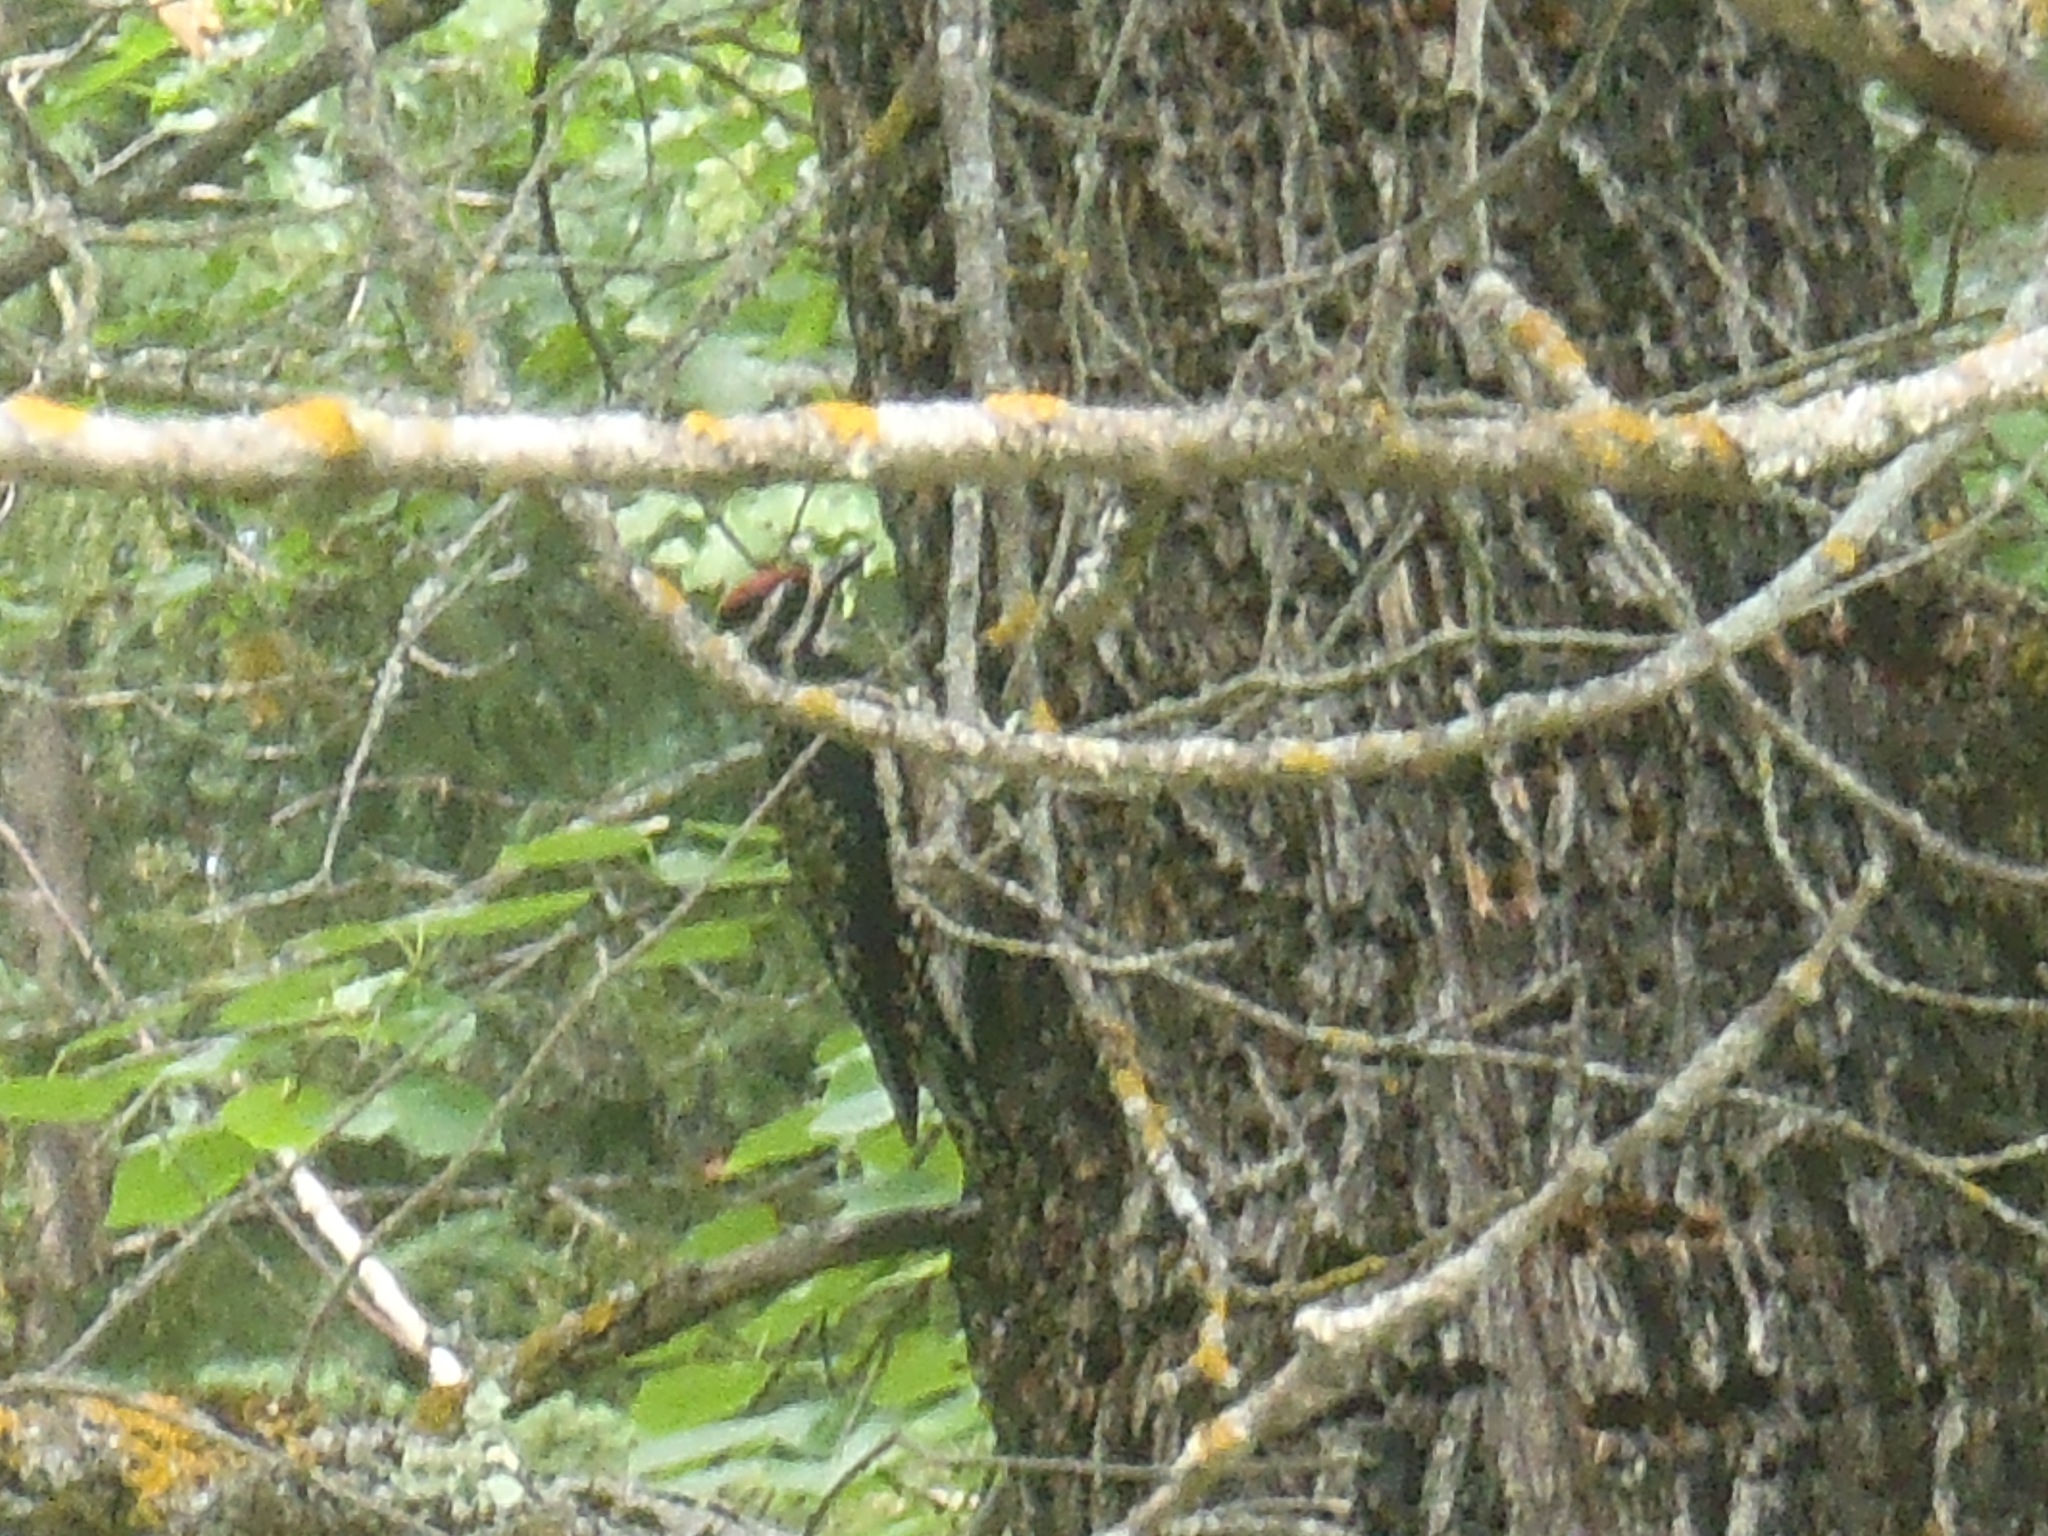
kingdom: Animalia
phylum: Chordata
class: Aves
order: Piciformes
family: Picidae
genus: Sphyrapicus
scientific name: Sphyrapicus varius
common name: Yellow-bellied sapsucker
